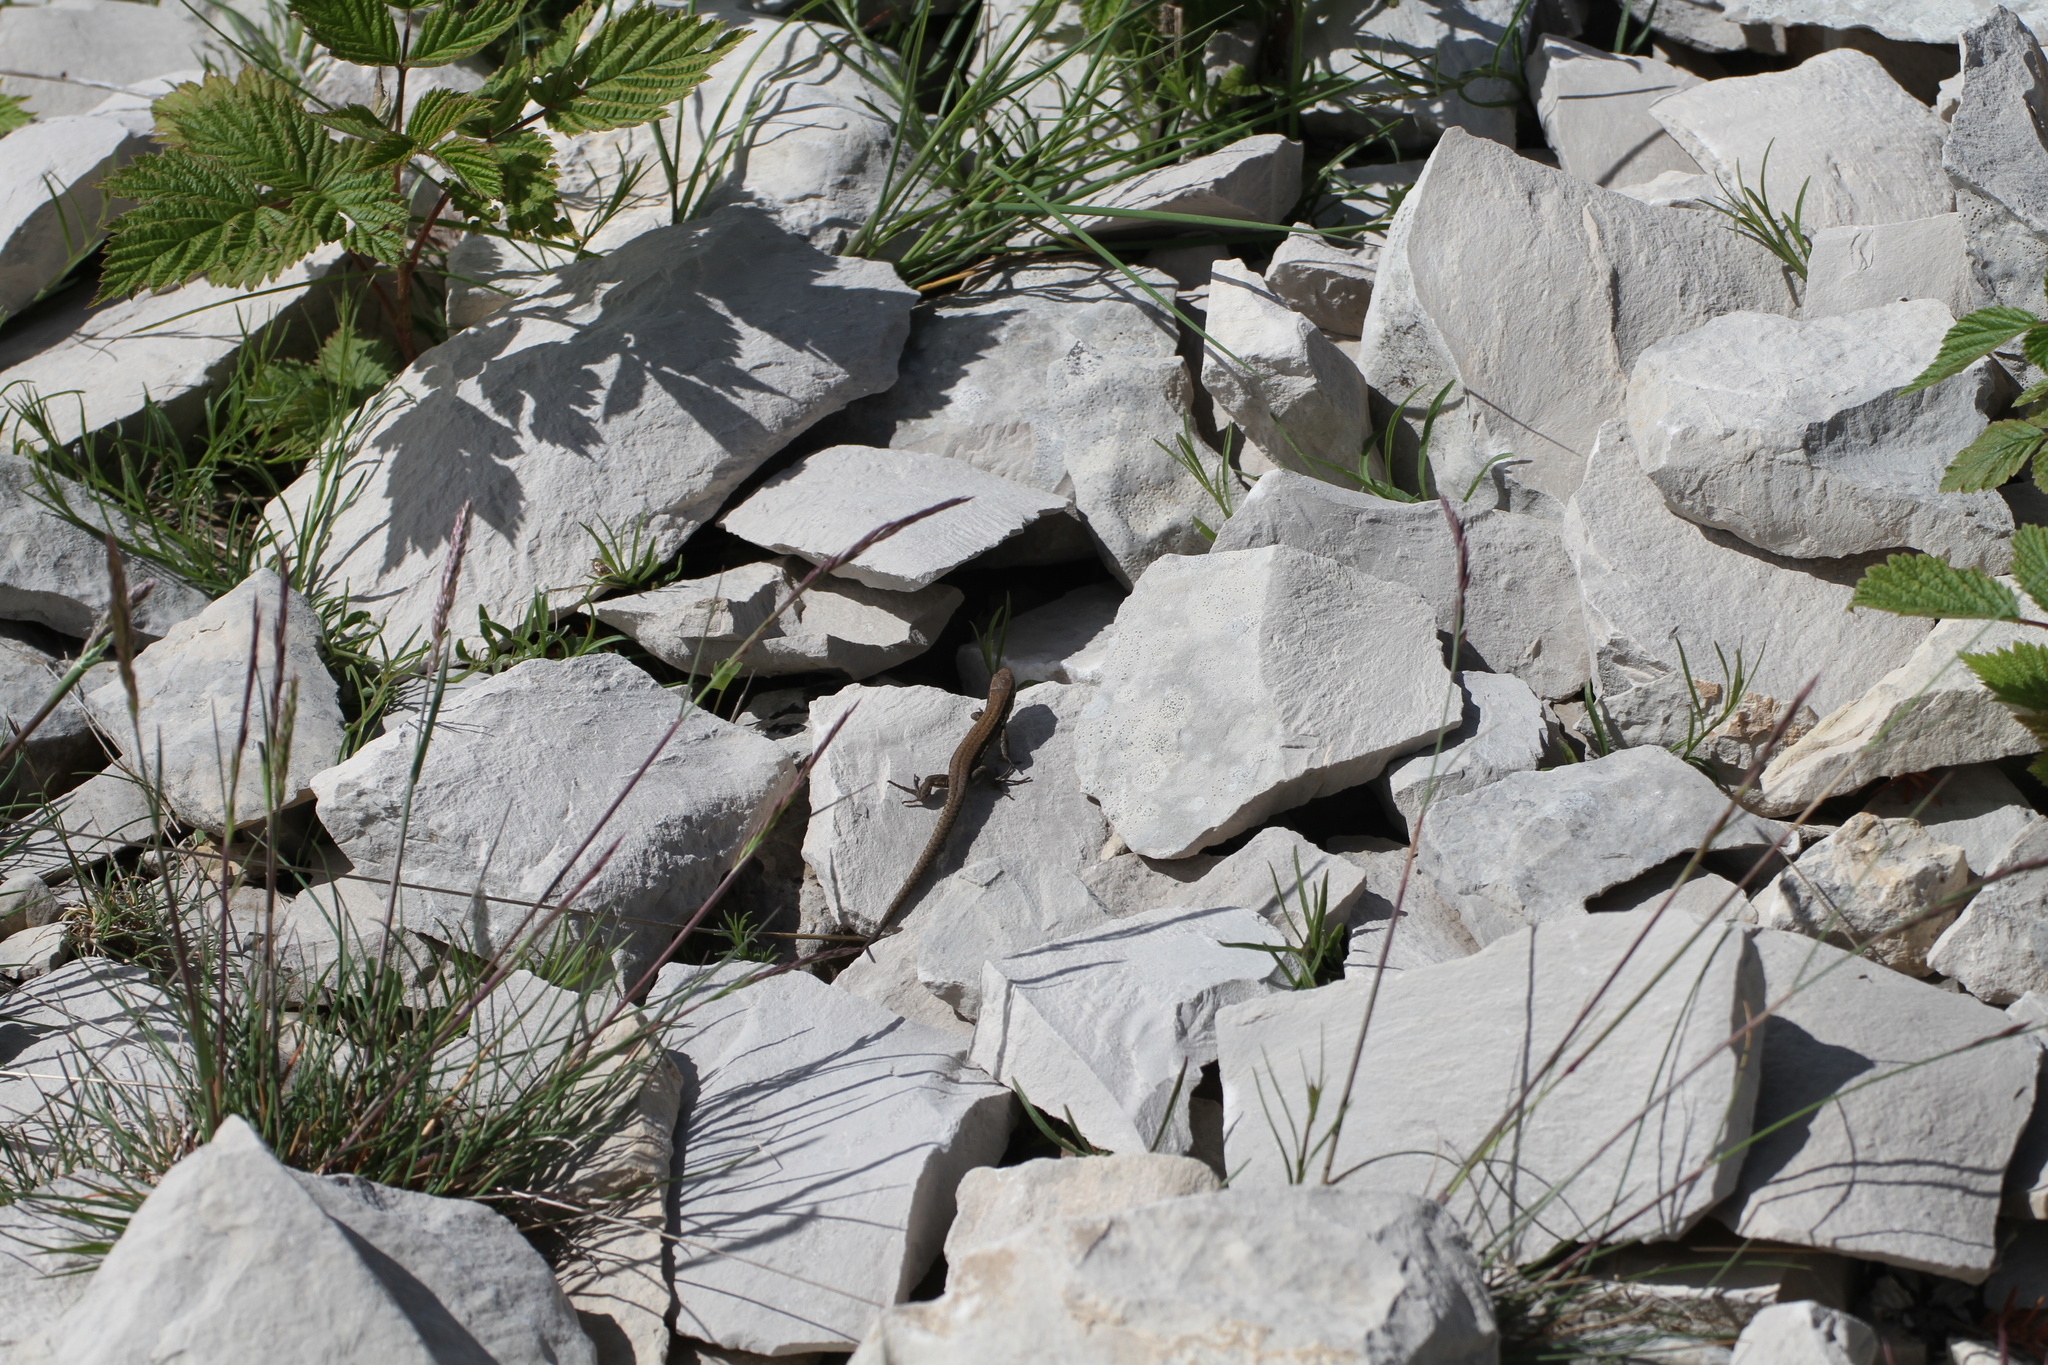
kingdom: Animalia
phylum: Chordata
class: Squamata
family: Lacertidae
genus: Podarcis
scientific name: Podarcis muralis
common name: Common wall lizard
